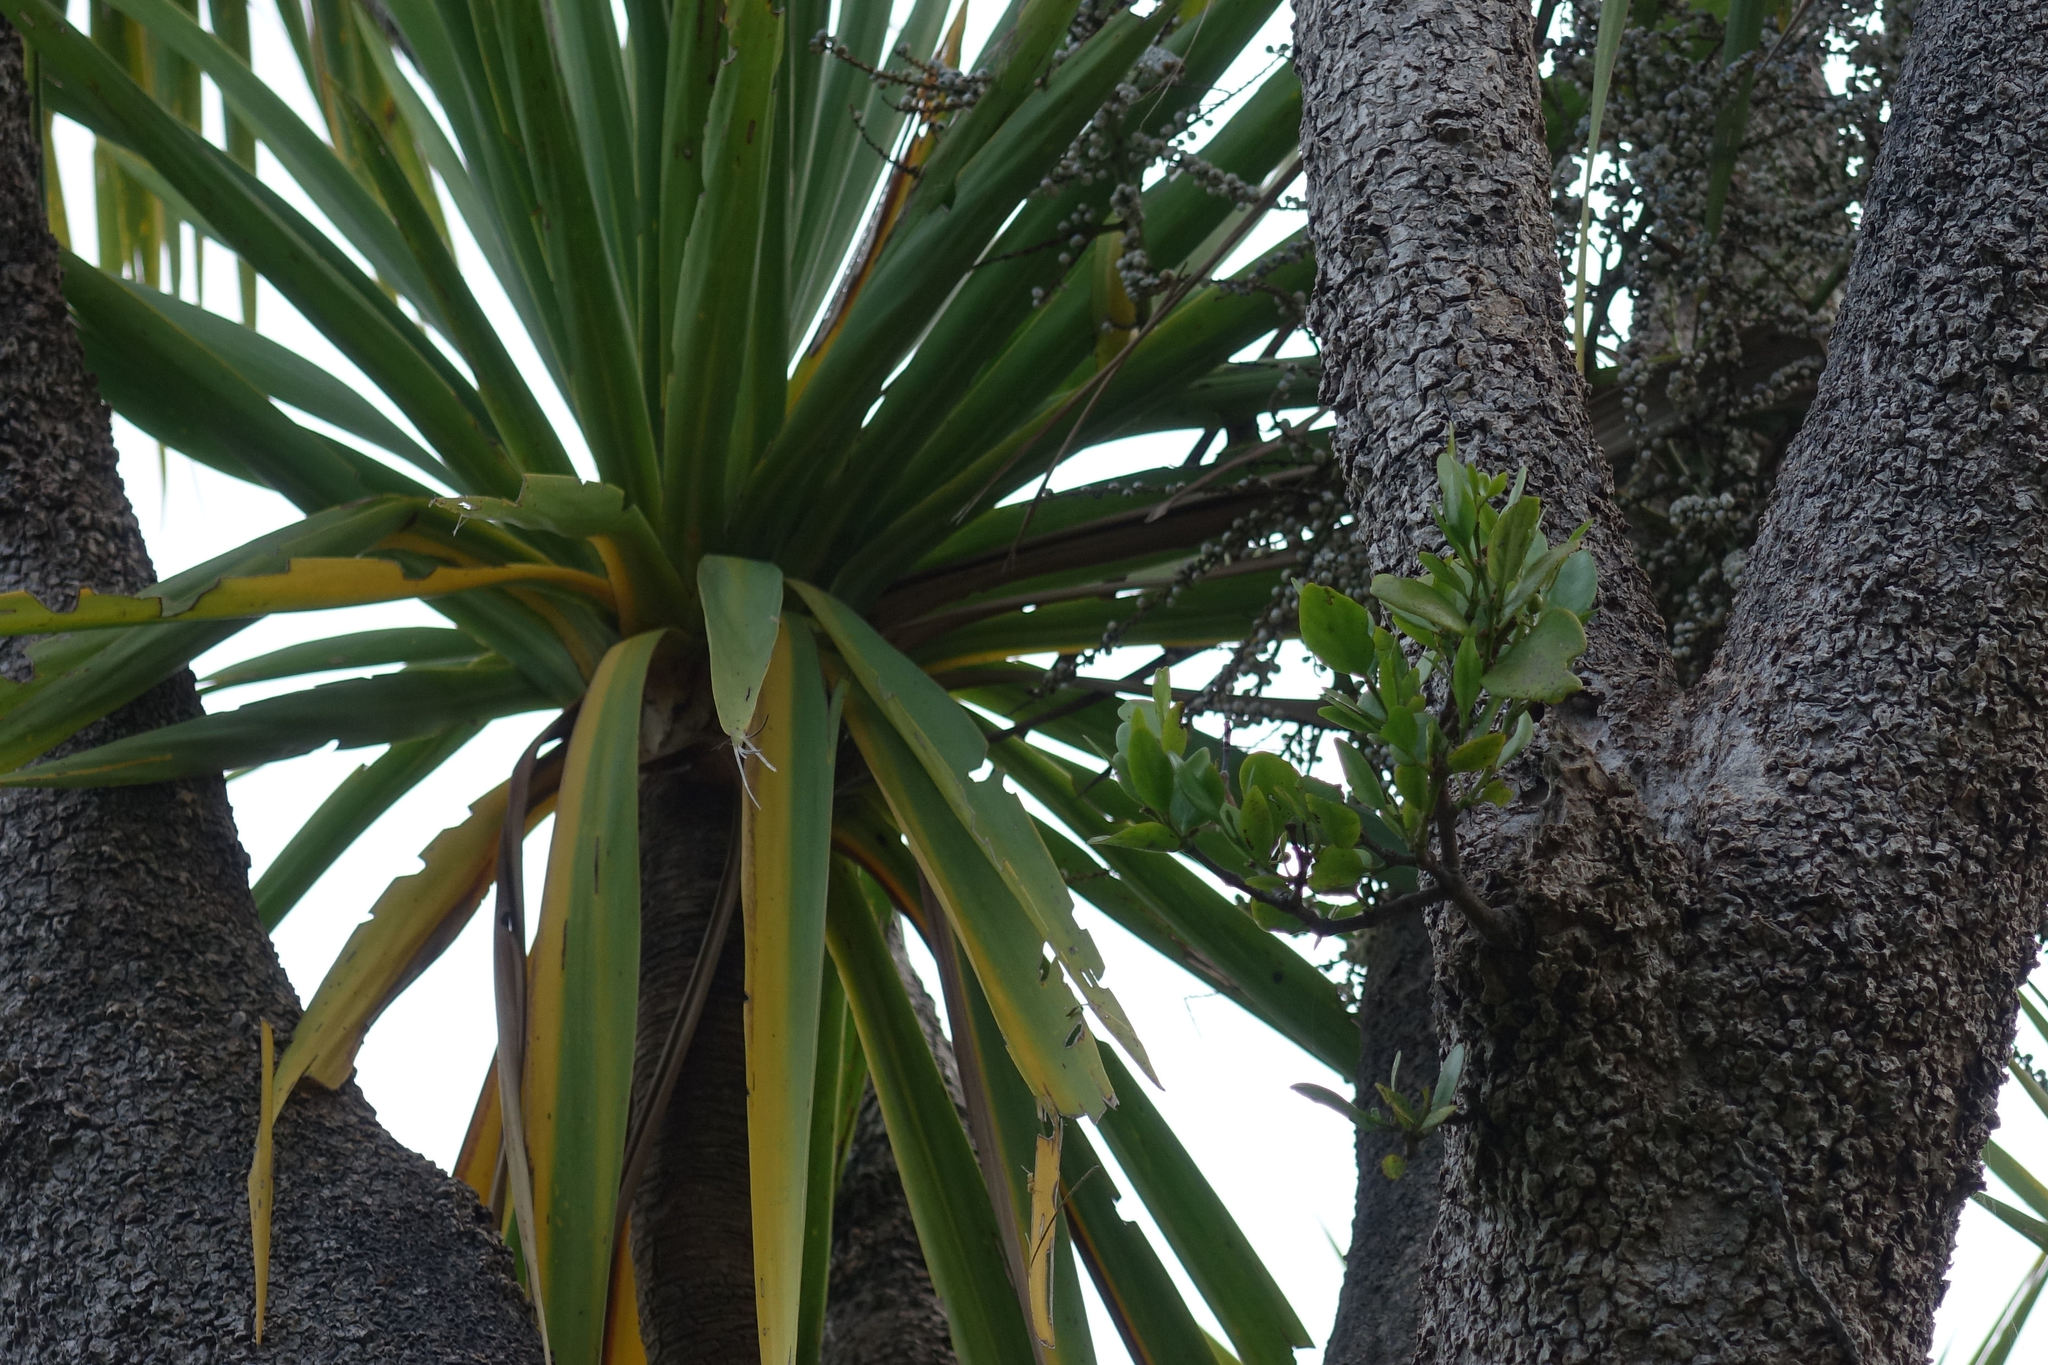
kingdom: Plantae
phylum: Tracheophyta
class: Magnoliopsida
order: Santalales
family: Loranthaceae
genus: Ileostylus
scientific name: Ileostylus micranthus
